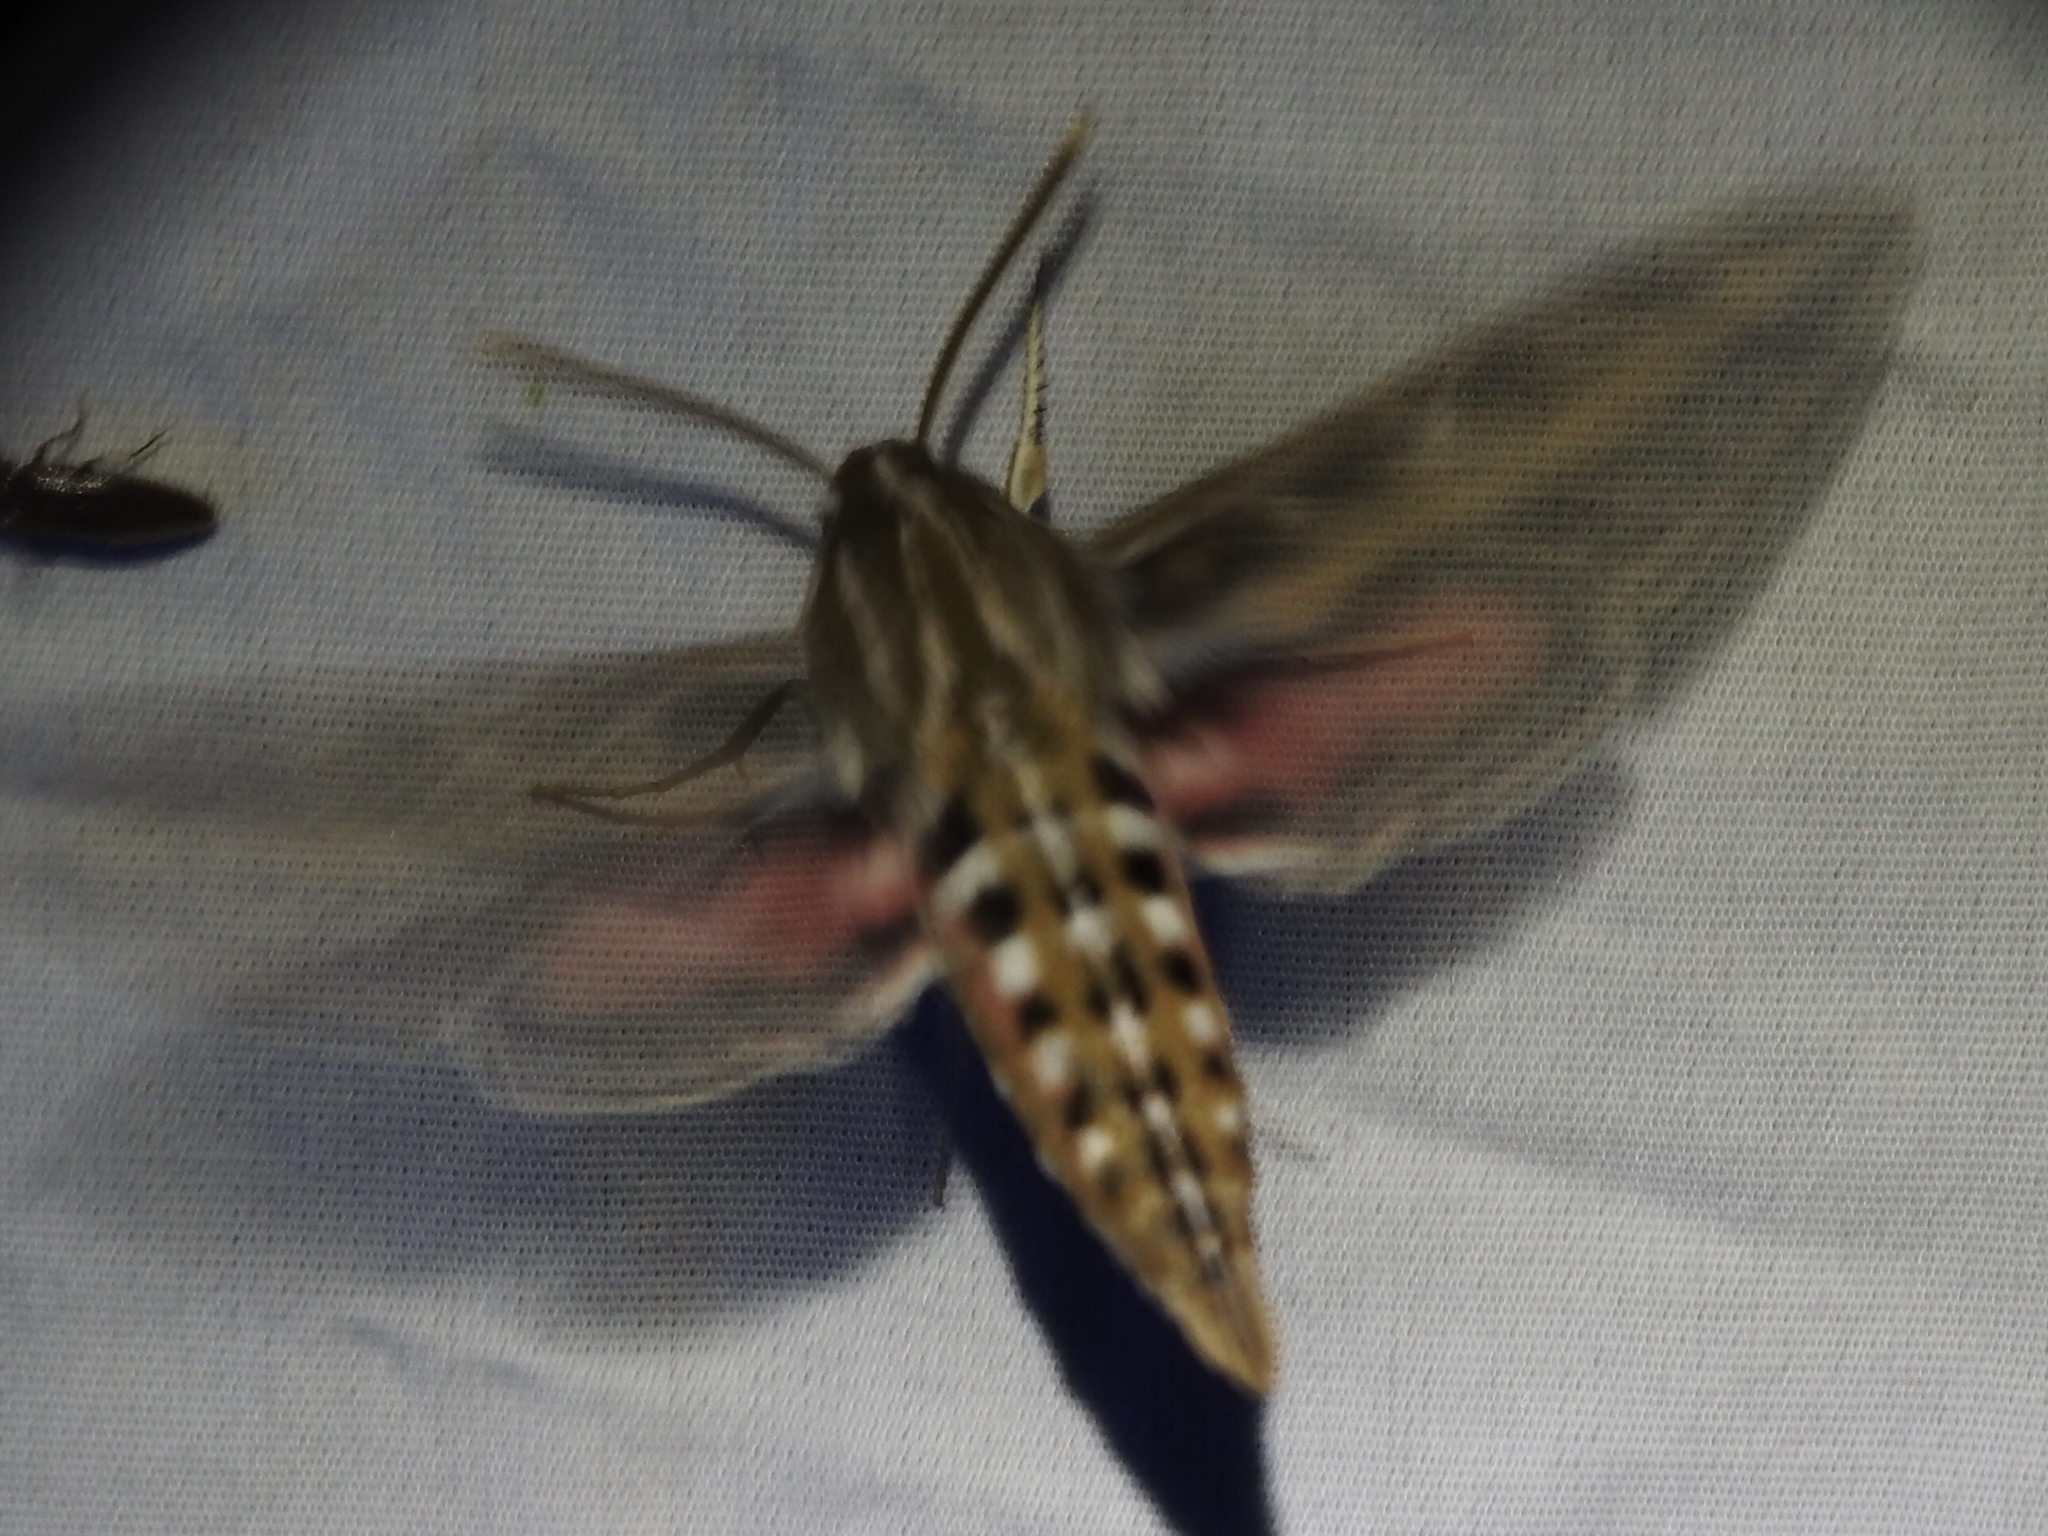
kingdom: Animalia
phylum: Arthropoda
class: Insecta
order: Lepidoptera
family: Sphingidae
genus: Hyles
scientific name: Hyles lineata
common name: White-lined sphinx
